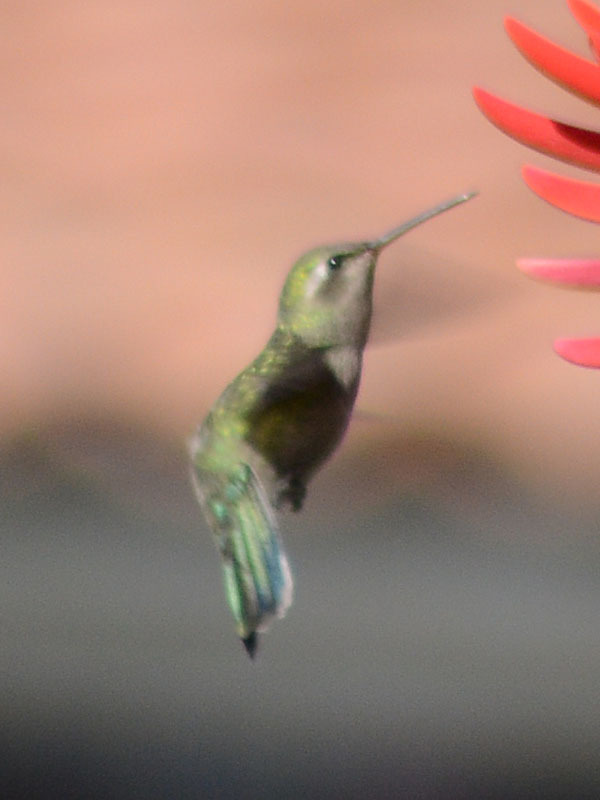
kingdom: Animalia
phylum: Chordata
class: Aves
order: Apodiformes
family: Trochilidae
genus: Cynanthus
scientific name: Cynanthus latirostris
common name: Broad-billed hummingbird
